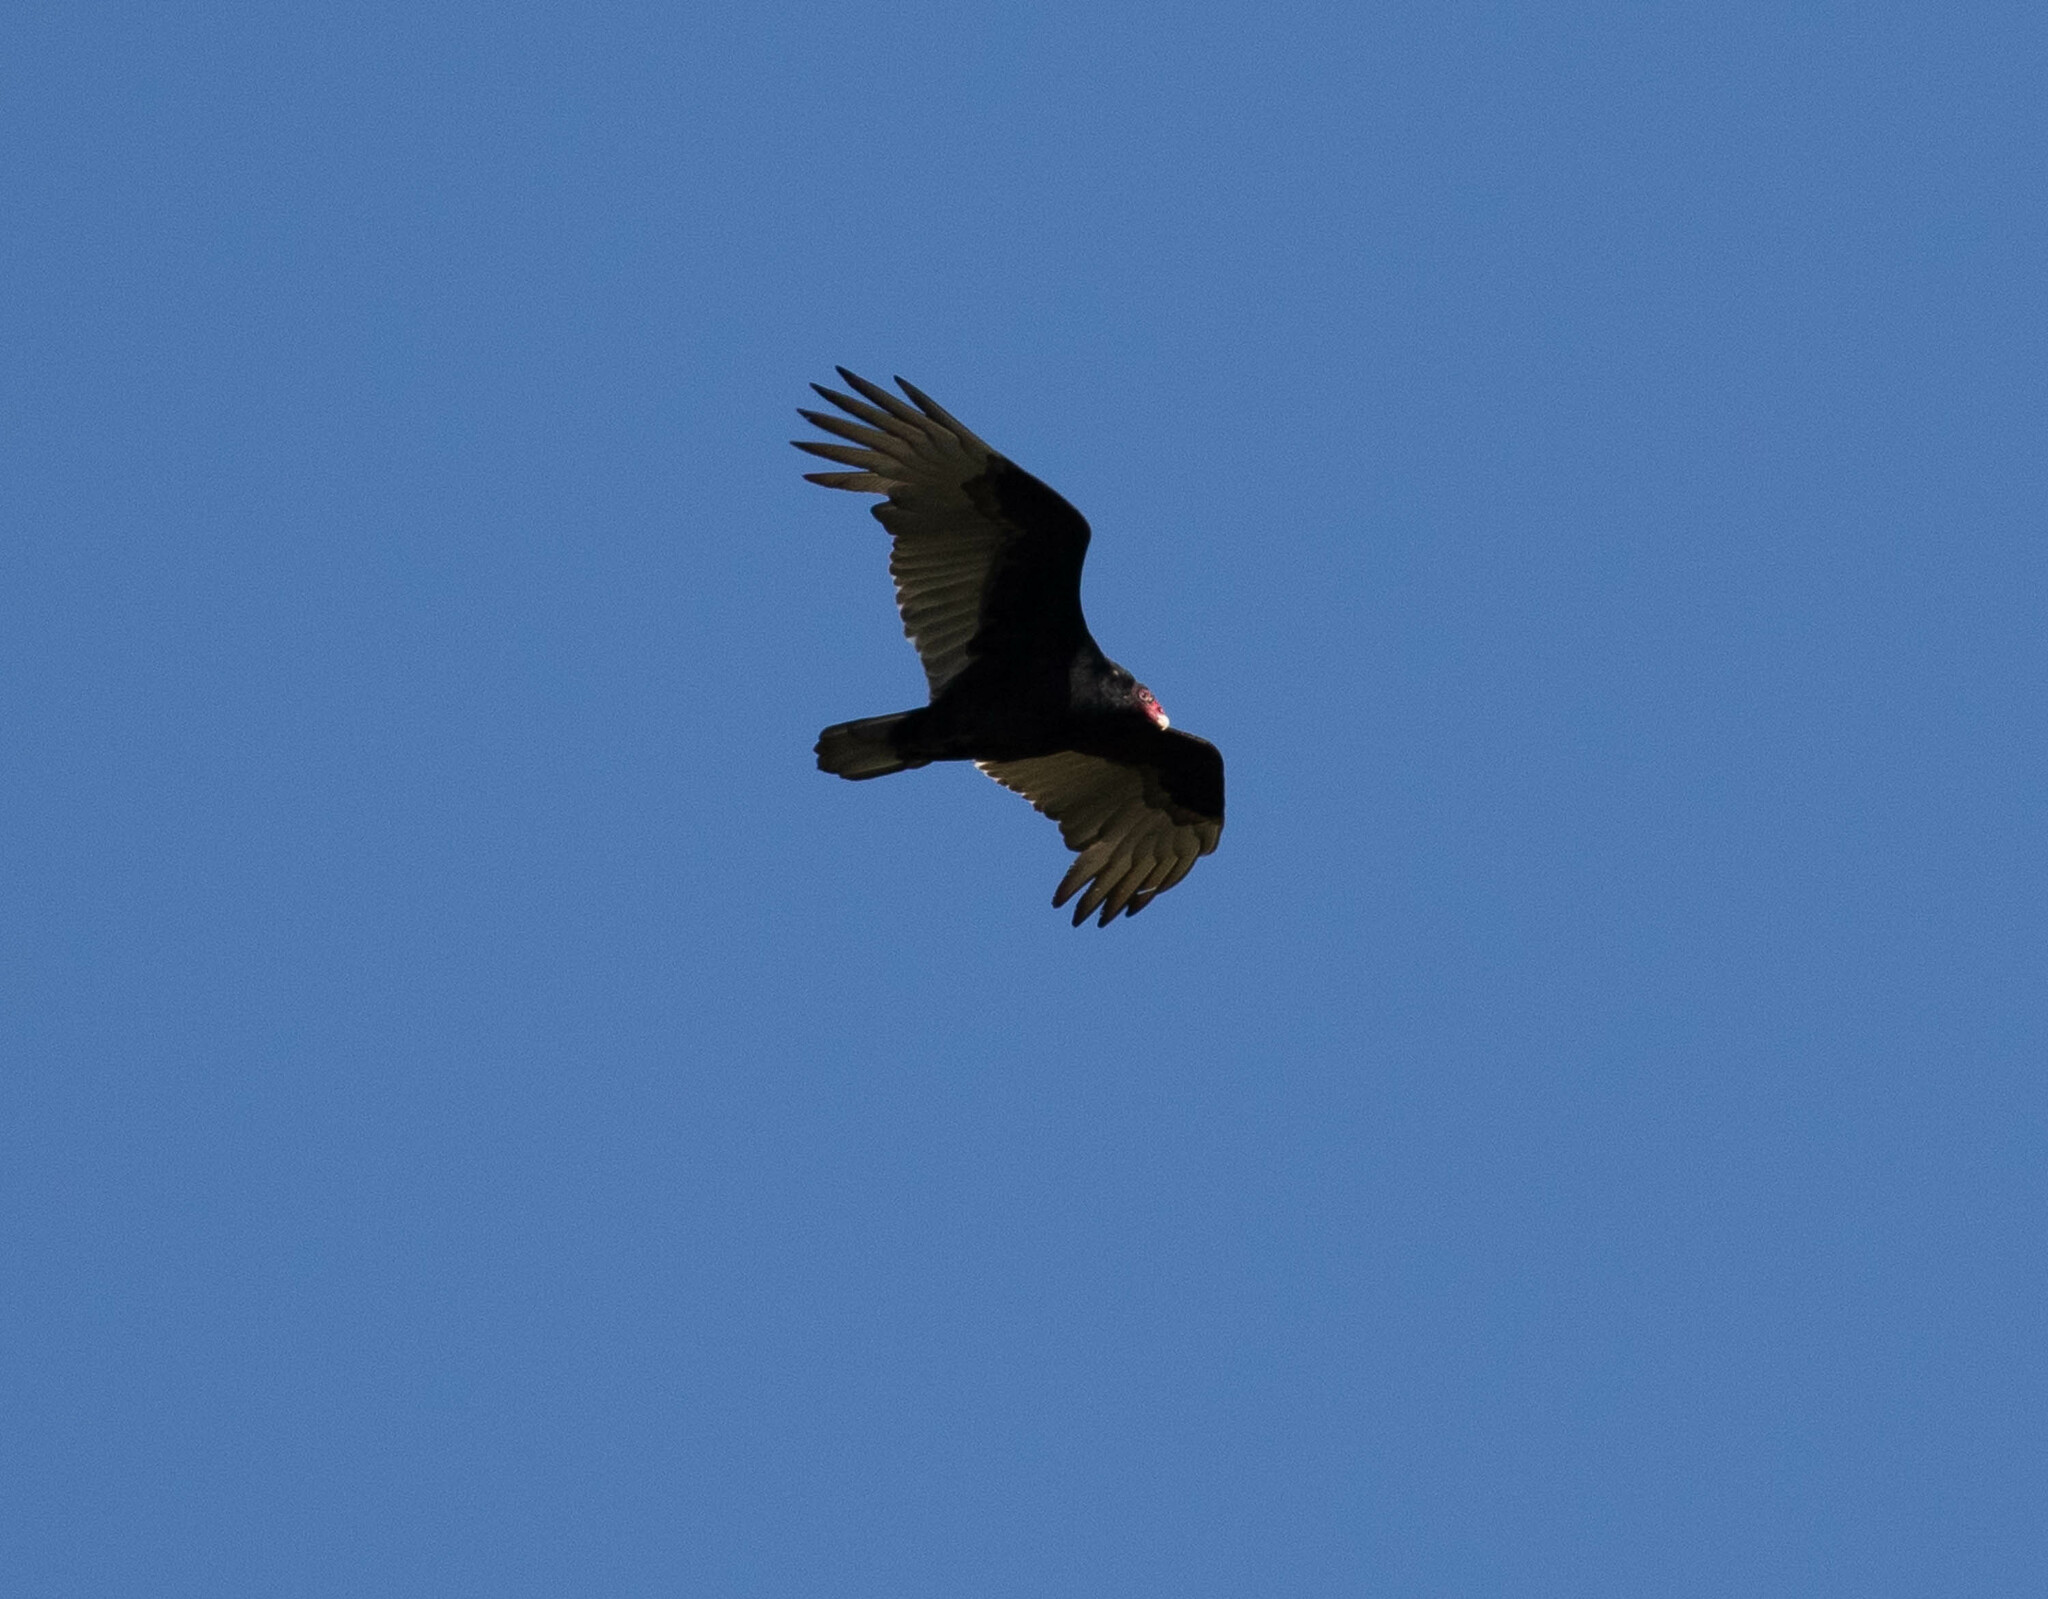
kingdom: Animalia
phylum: Chordata
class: Aves
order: Accipitriformes
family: Cathartidae
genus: Cathartes
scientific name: Cathartes aura
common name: Turkey vulture
